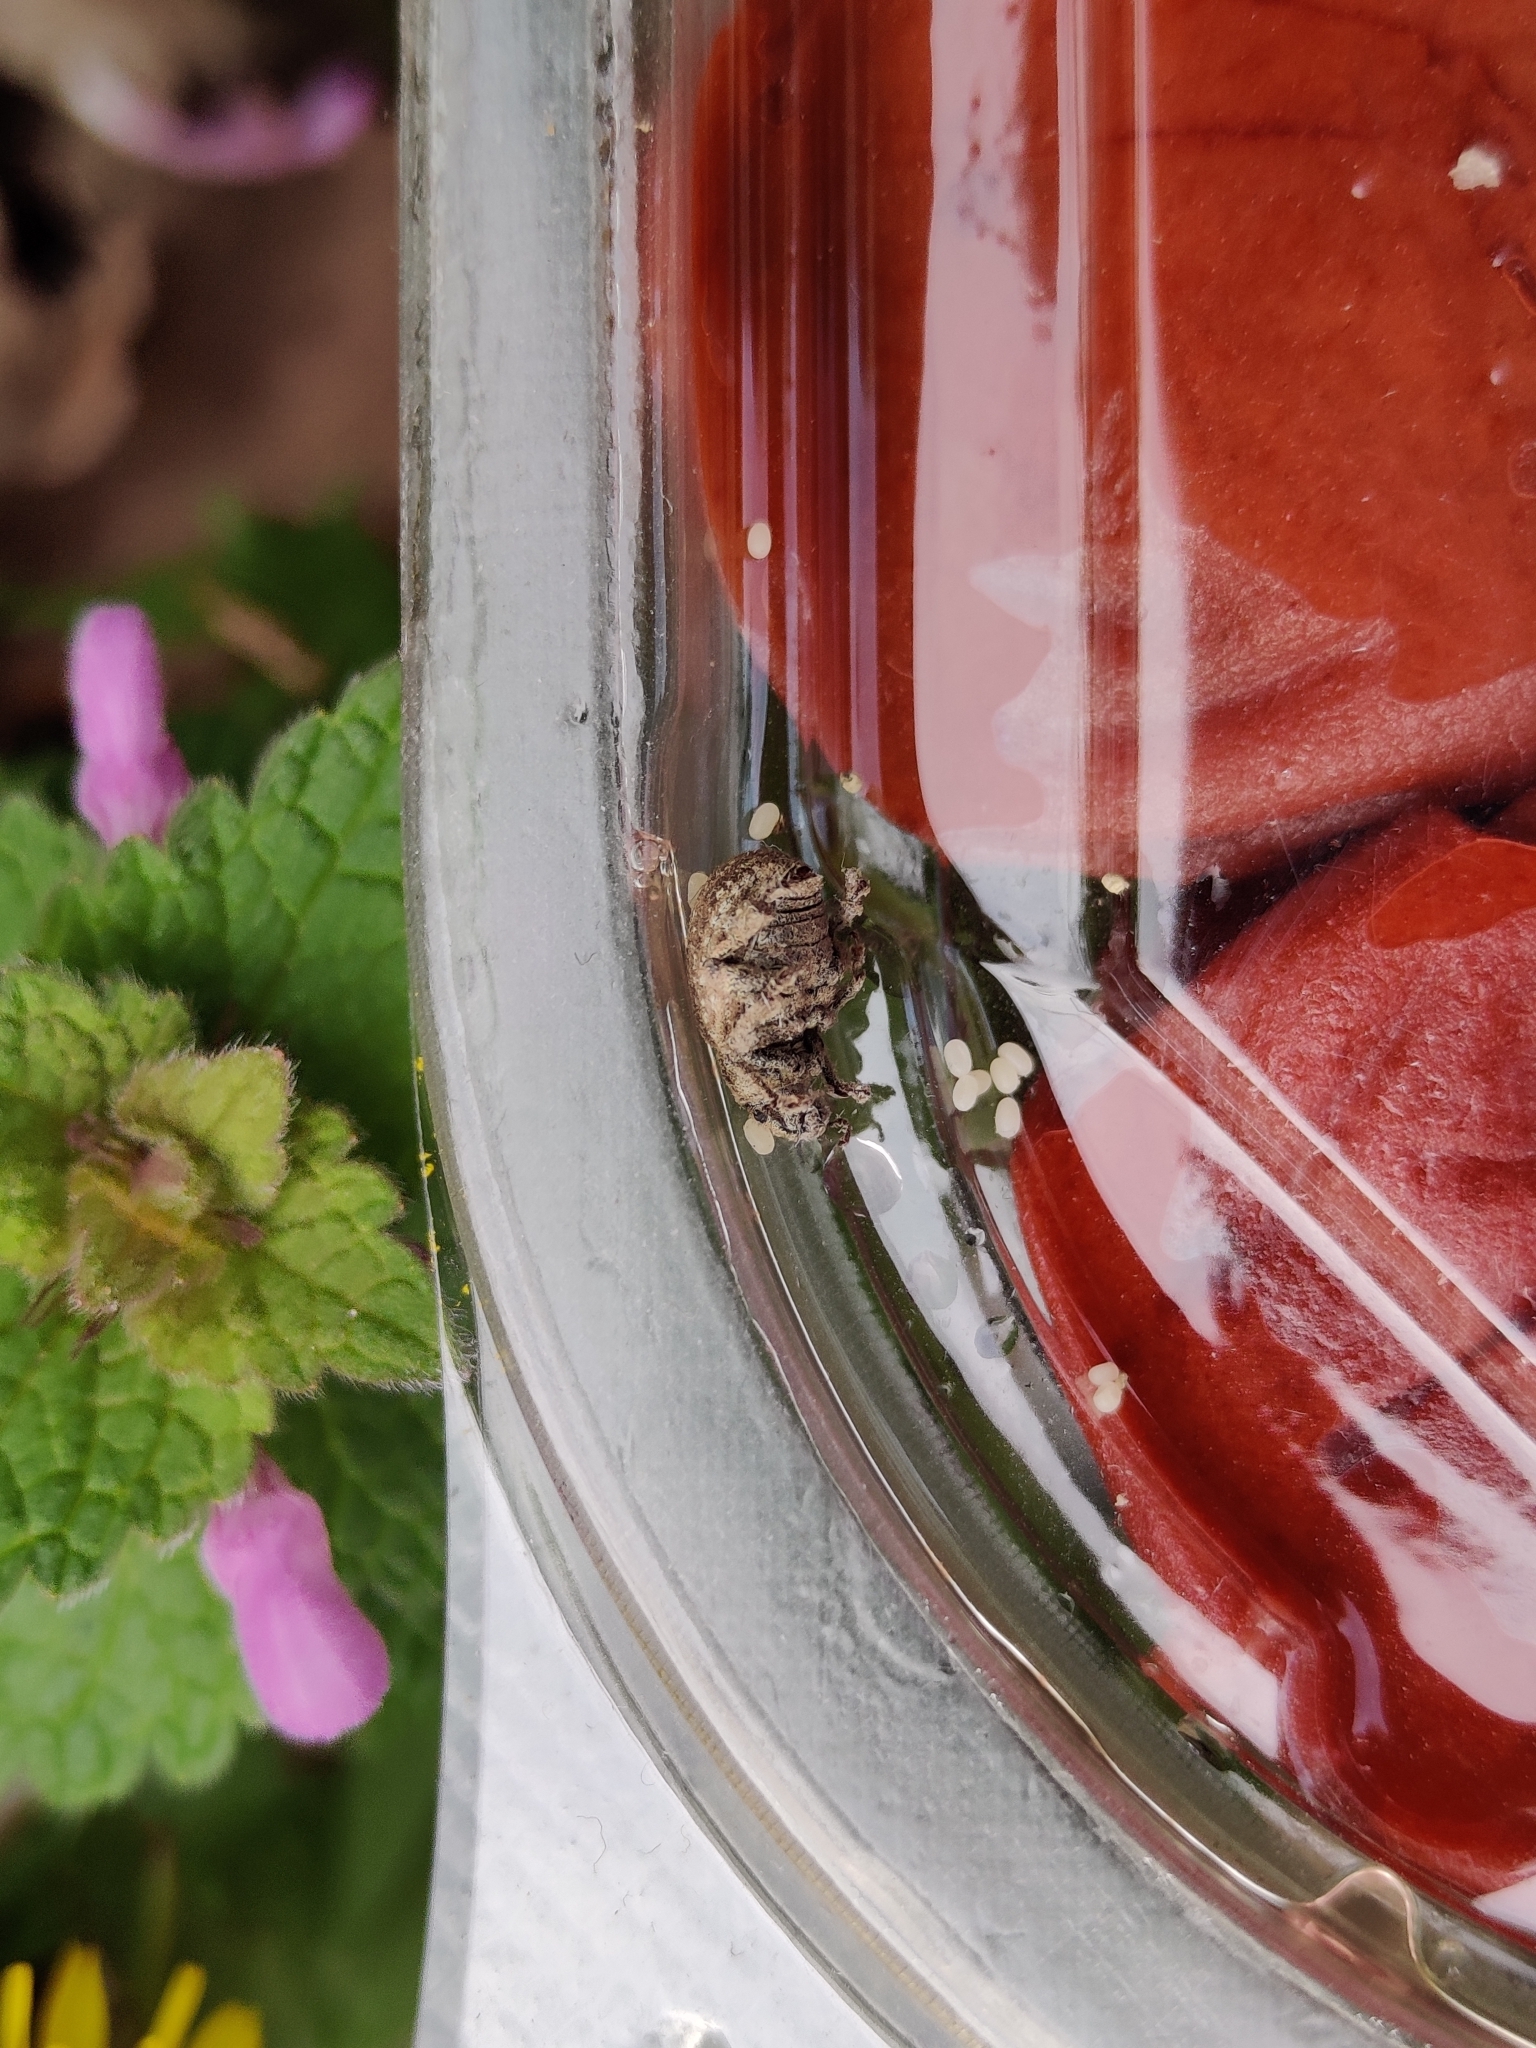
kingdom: Animalia
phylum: Arthropoda
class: Insecta
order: Coleoptera
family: Curculionidae
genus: Philopedon
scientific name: Philopedon plagiatum
